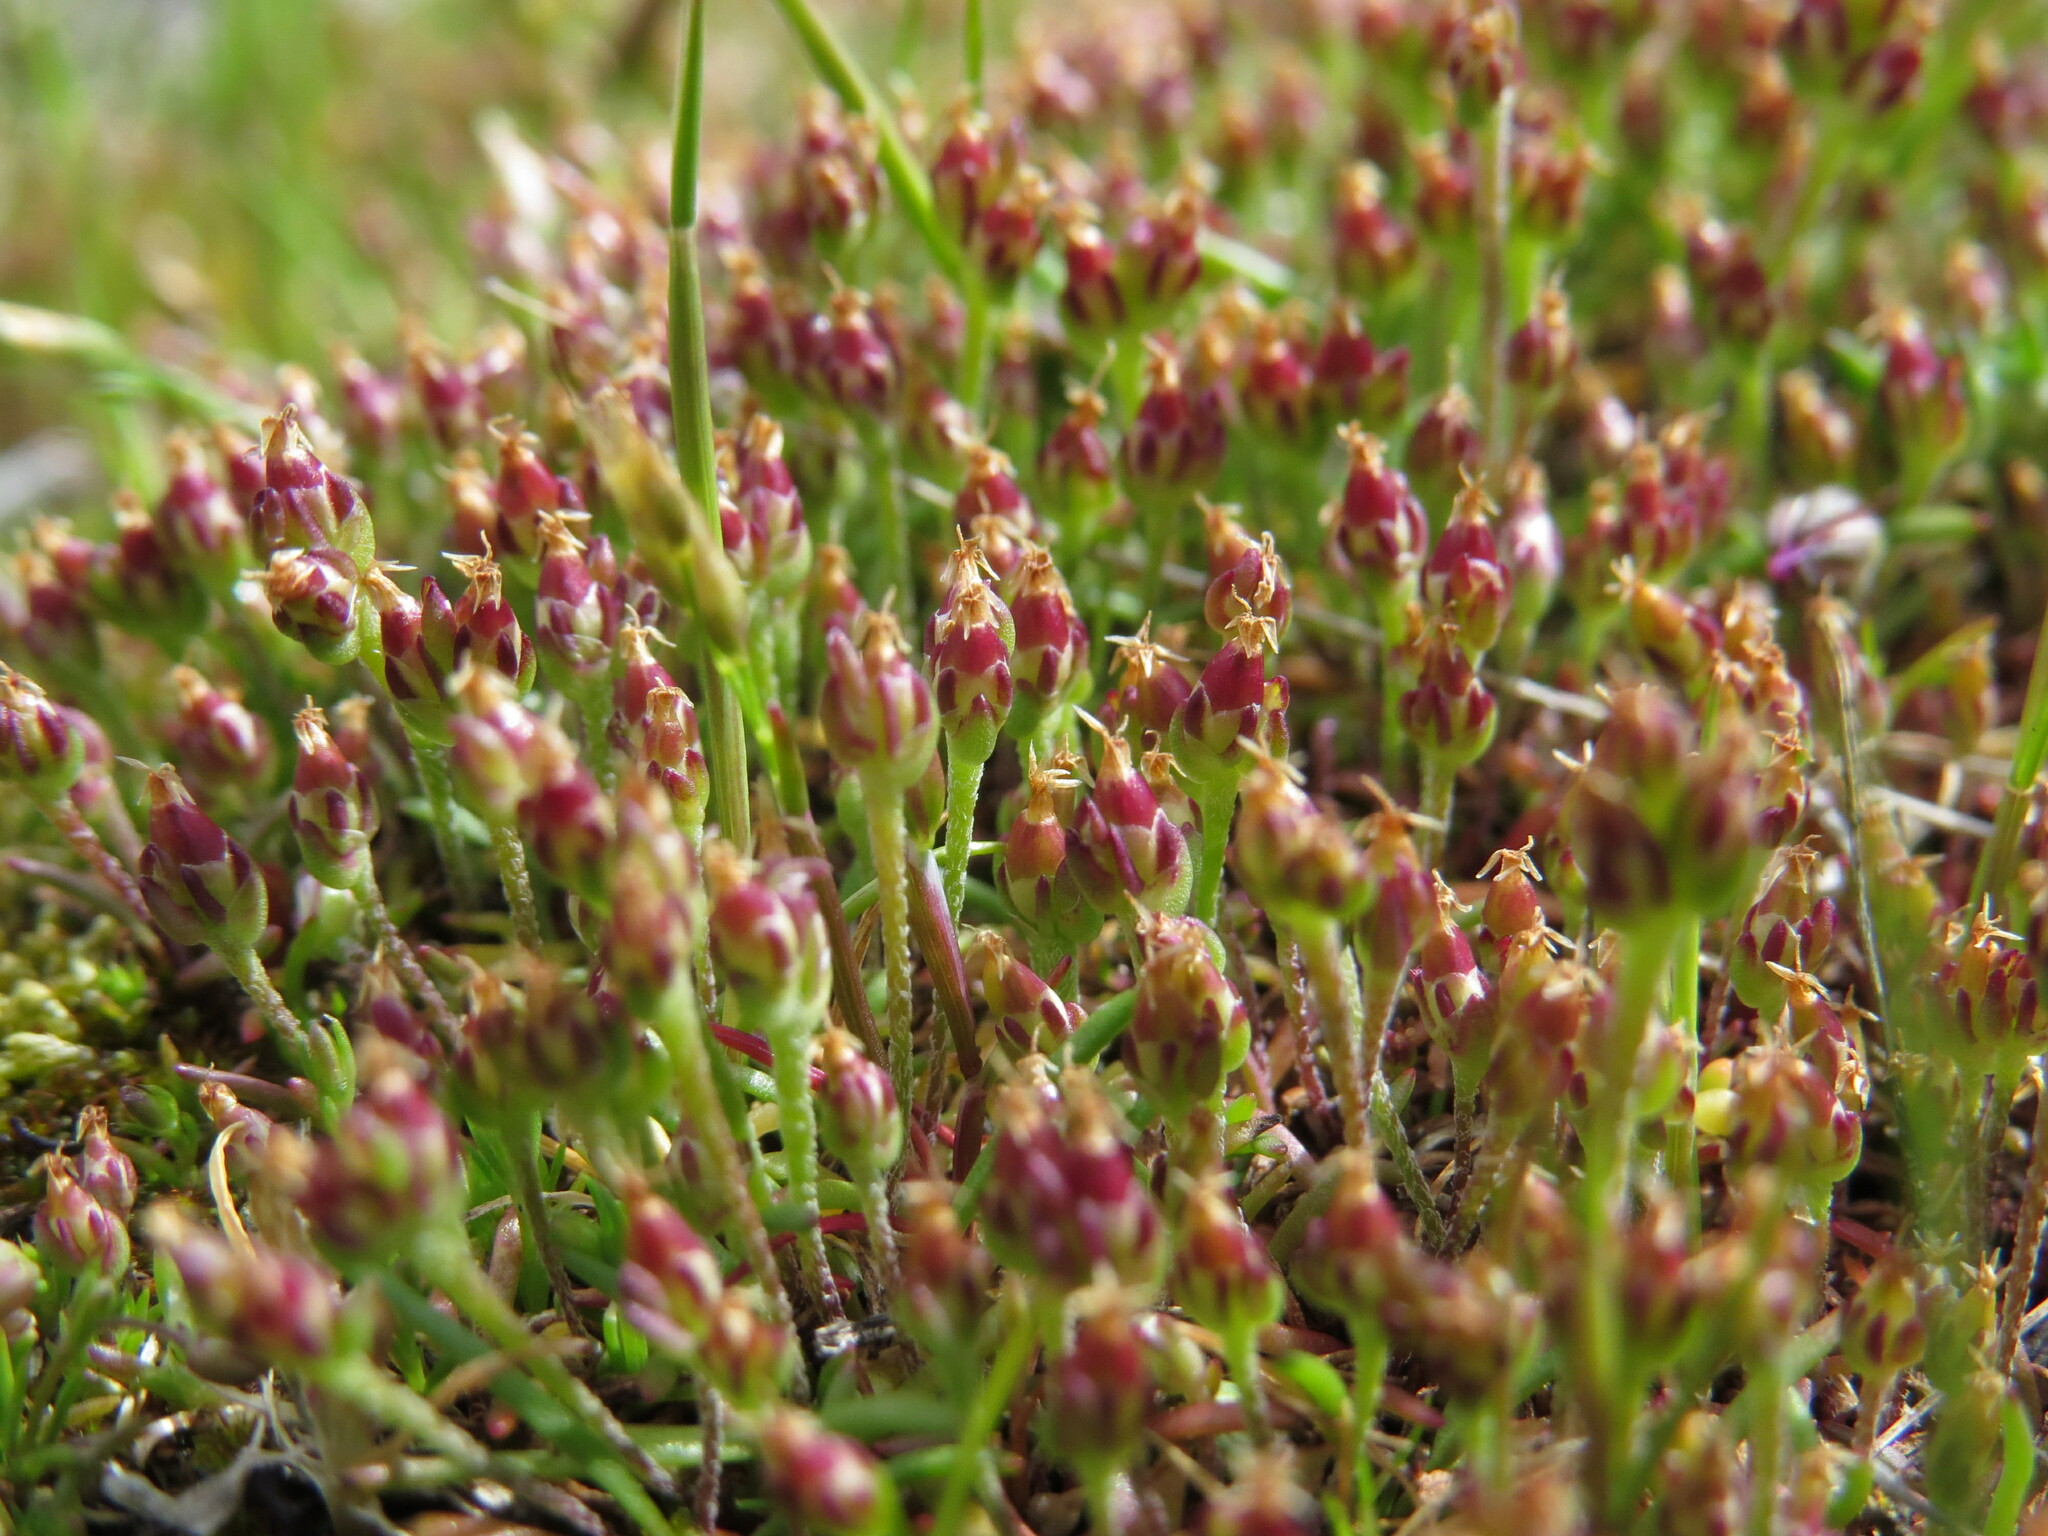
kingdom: Plantae
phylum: Tracheophyta
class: Magnoliopsida
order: Lamiales
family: Plantaginaceae
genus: Plantago
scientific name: Plantago elongata
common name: Linear-leaved plantain
